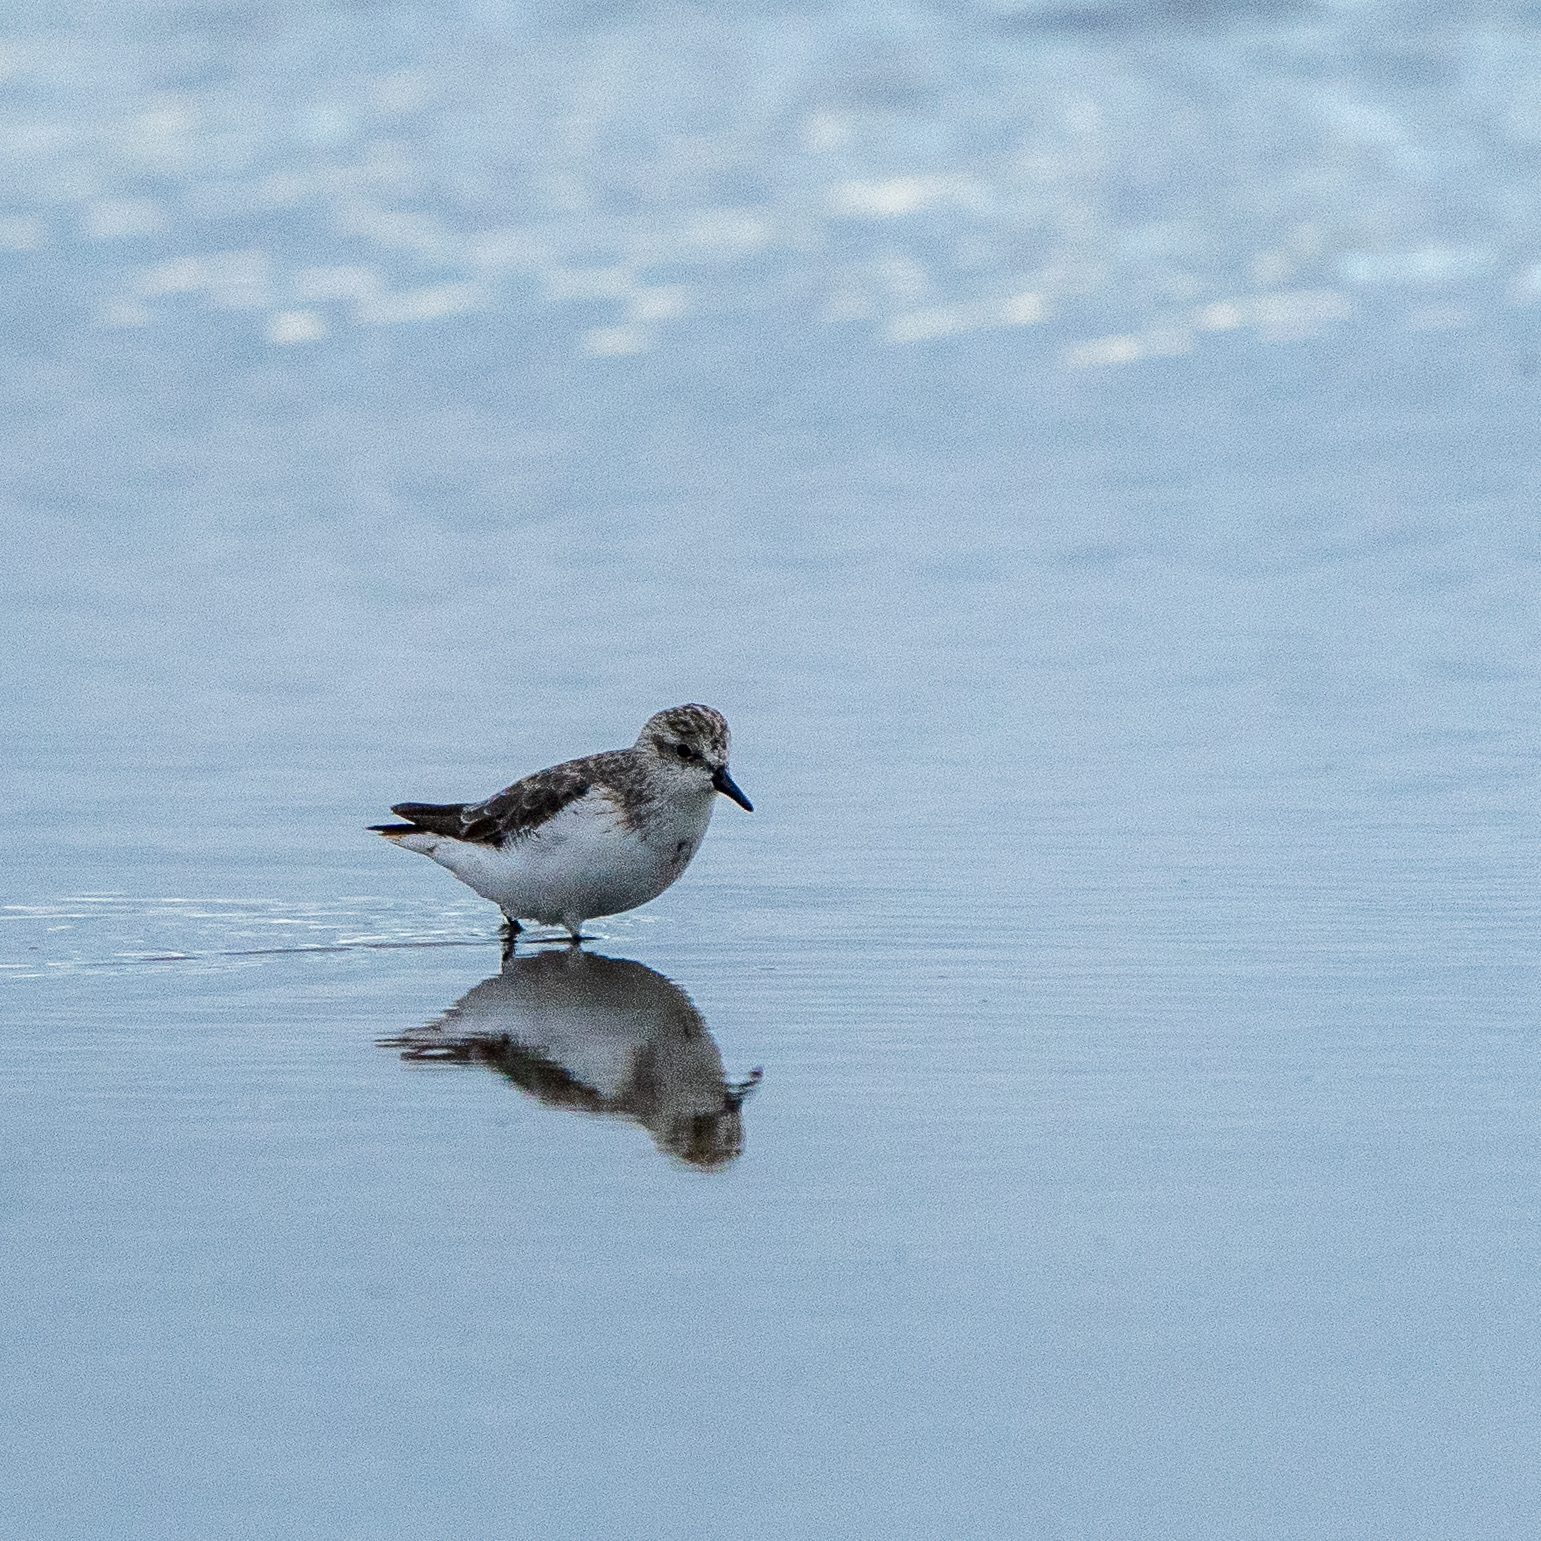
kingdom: Animalia
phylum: Chordata
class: Aves
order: Charadriiformes
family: Scolopacidae
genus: Calidris
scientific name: Calidris pusilla
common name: Semipalmated sandpiper
